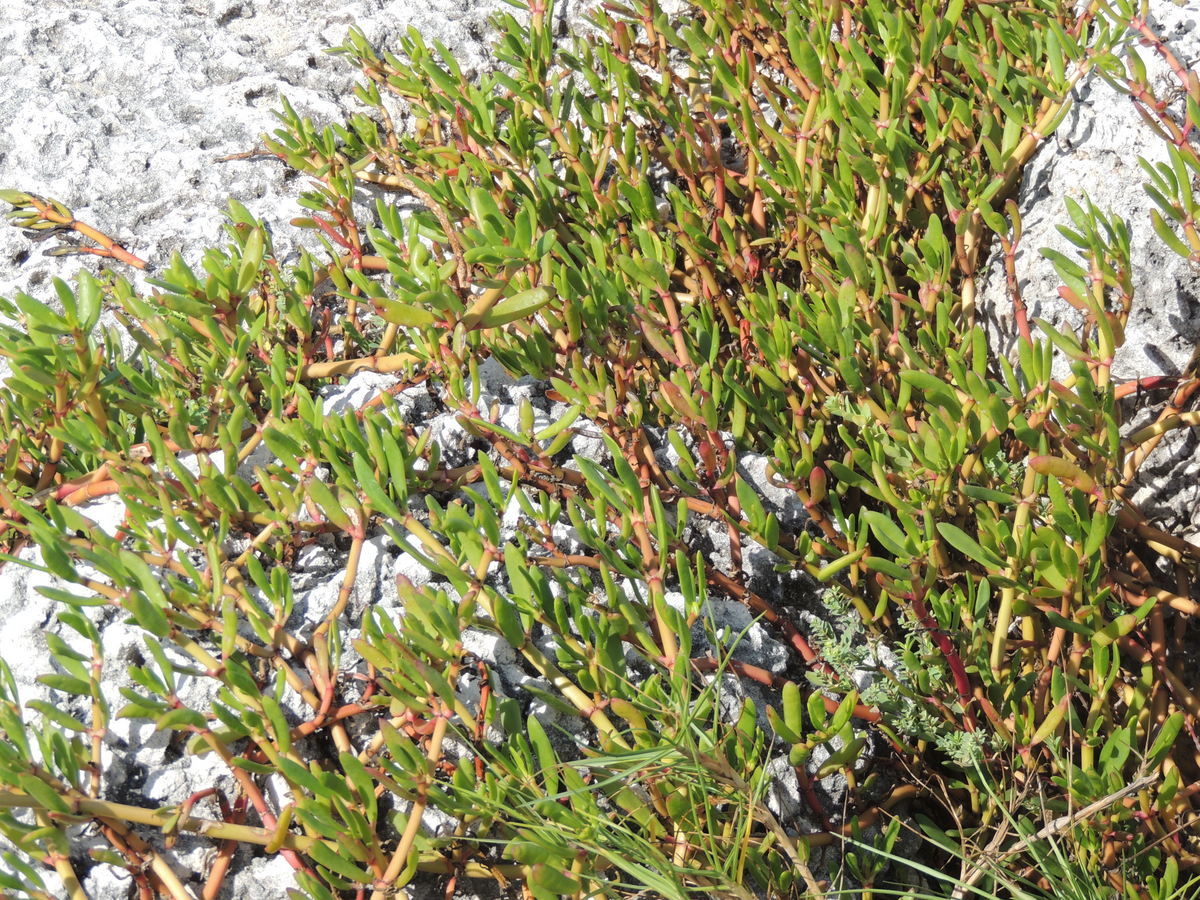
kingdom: Plantae
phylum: Tracheophyta
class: Magnoliopsida
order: Caryophyllales
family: Aizoaceae
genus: Sesuvium
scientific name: Sesuvium portulacastrum
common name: Sea-purslane
